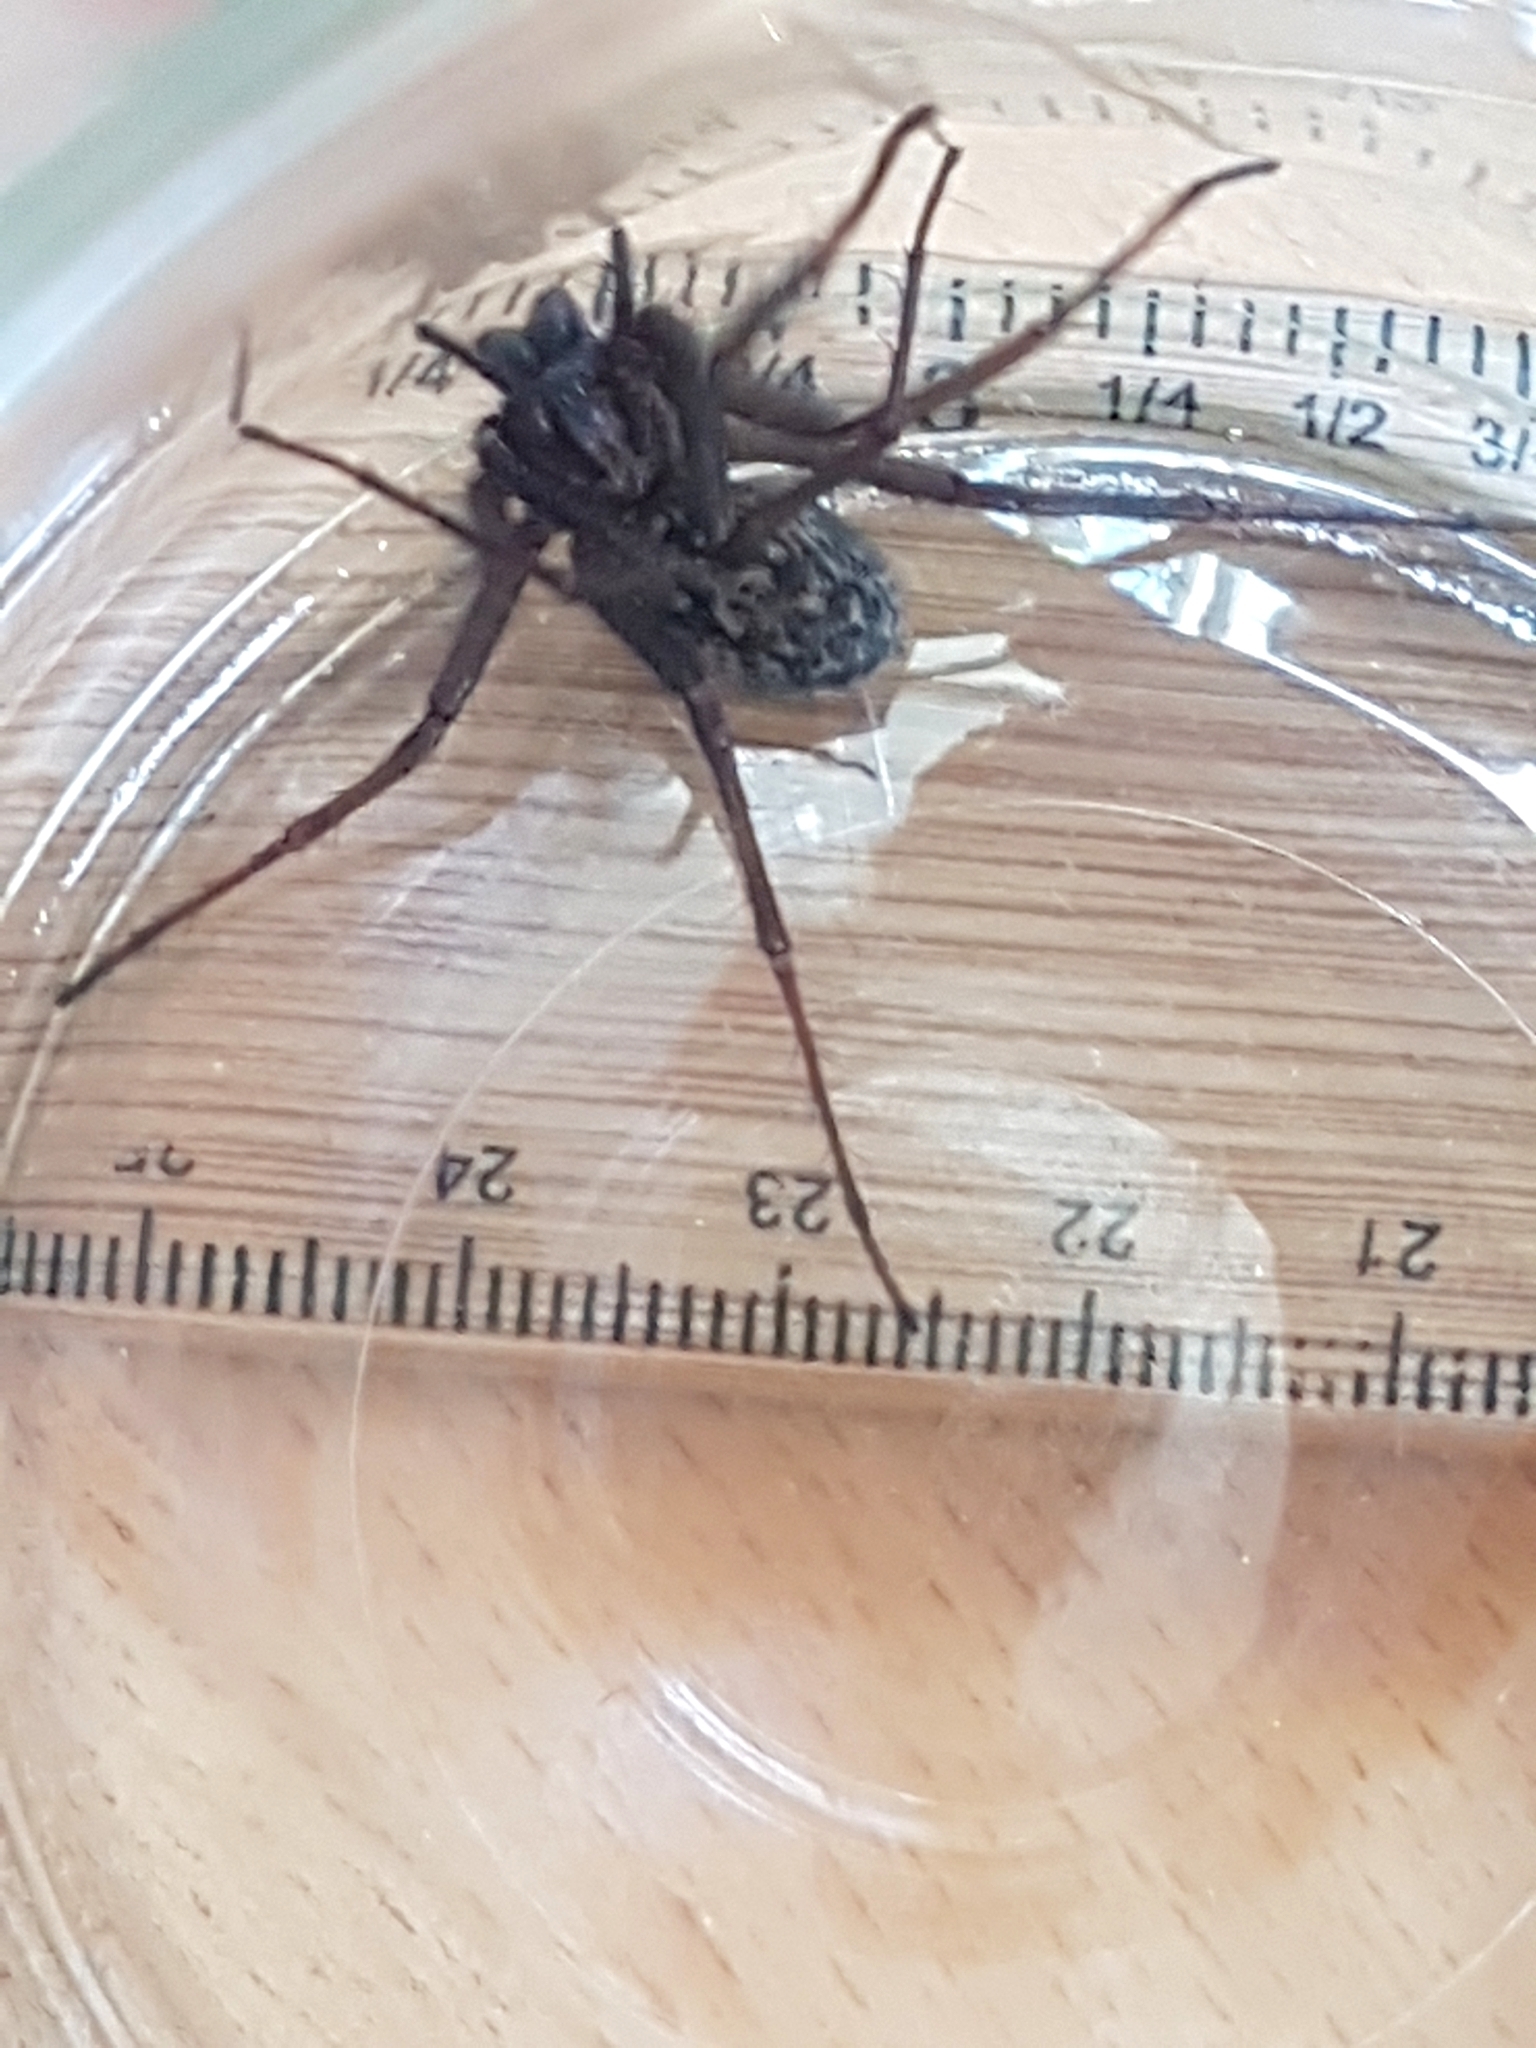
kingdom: Animalia
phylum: Arthropoda
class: Arachnida
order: Araneae
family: Agelenidae
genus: Eratigena
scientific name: Eratigena duellica
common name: Giant house spider
